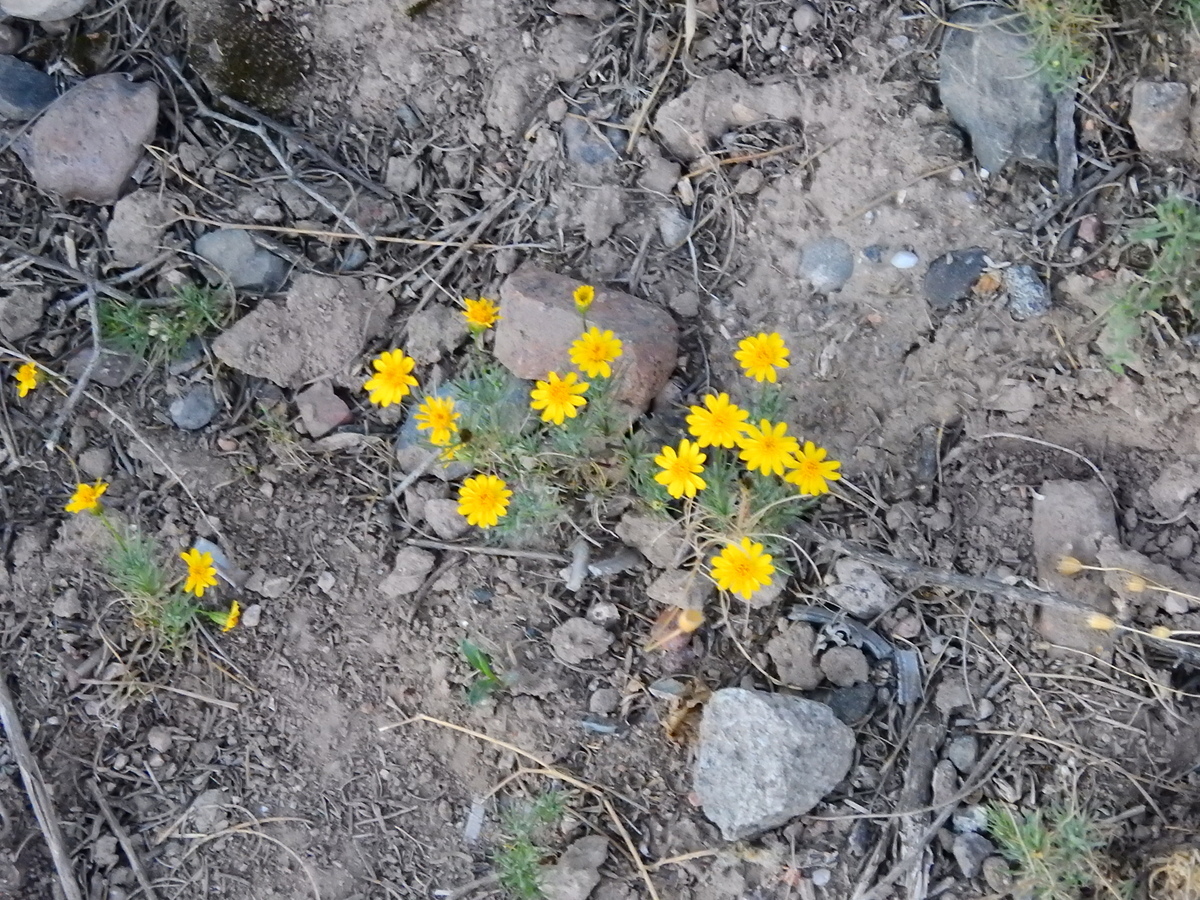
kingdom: Plantae
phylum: Tracheophyta
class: Magnoliopsida
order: Asterales
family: Asteraceae
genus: Thymophylla
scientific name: Thymophylla pentachaeta
